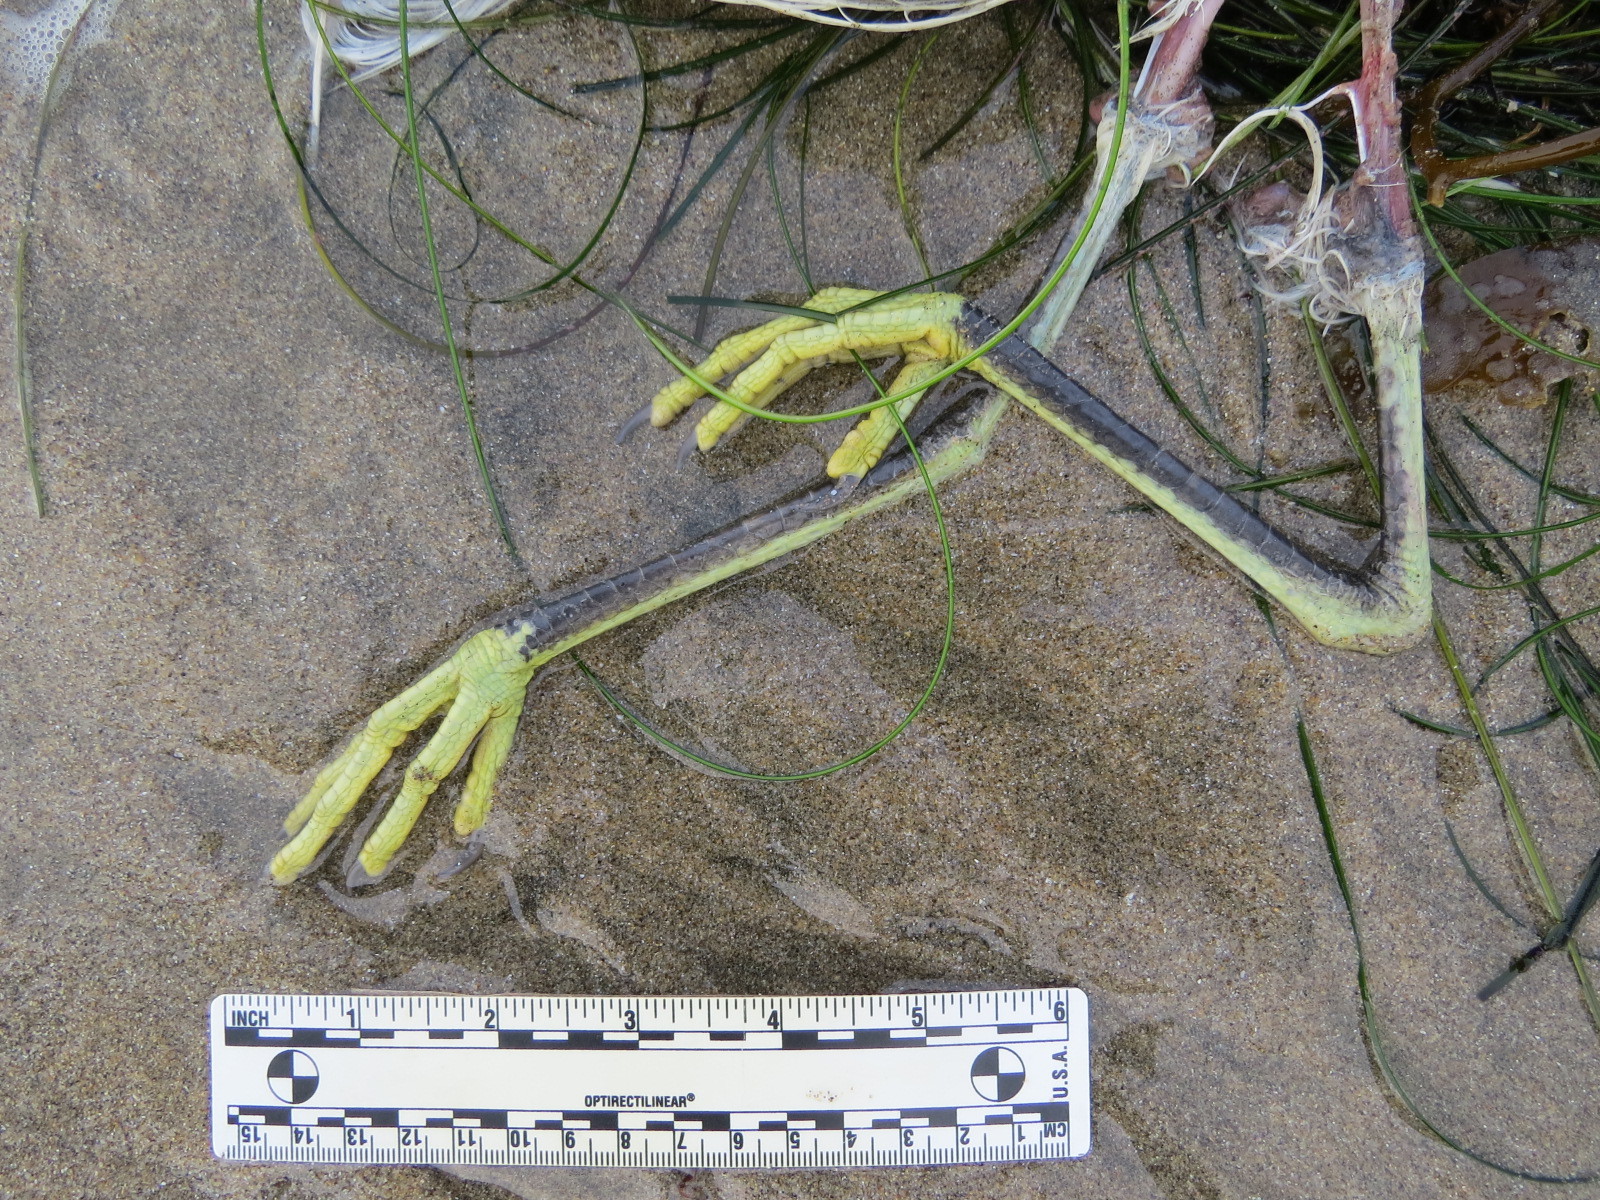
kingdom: Animalia
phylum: Chordata
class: Aves
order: Pelecaniformes
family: Ardeidae
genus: Egretta
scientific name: Egretta thula
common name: Snowy egret
